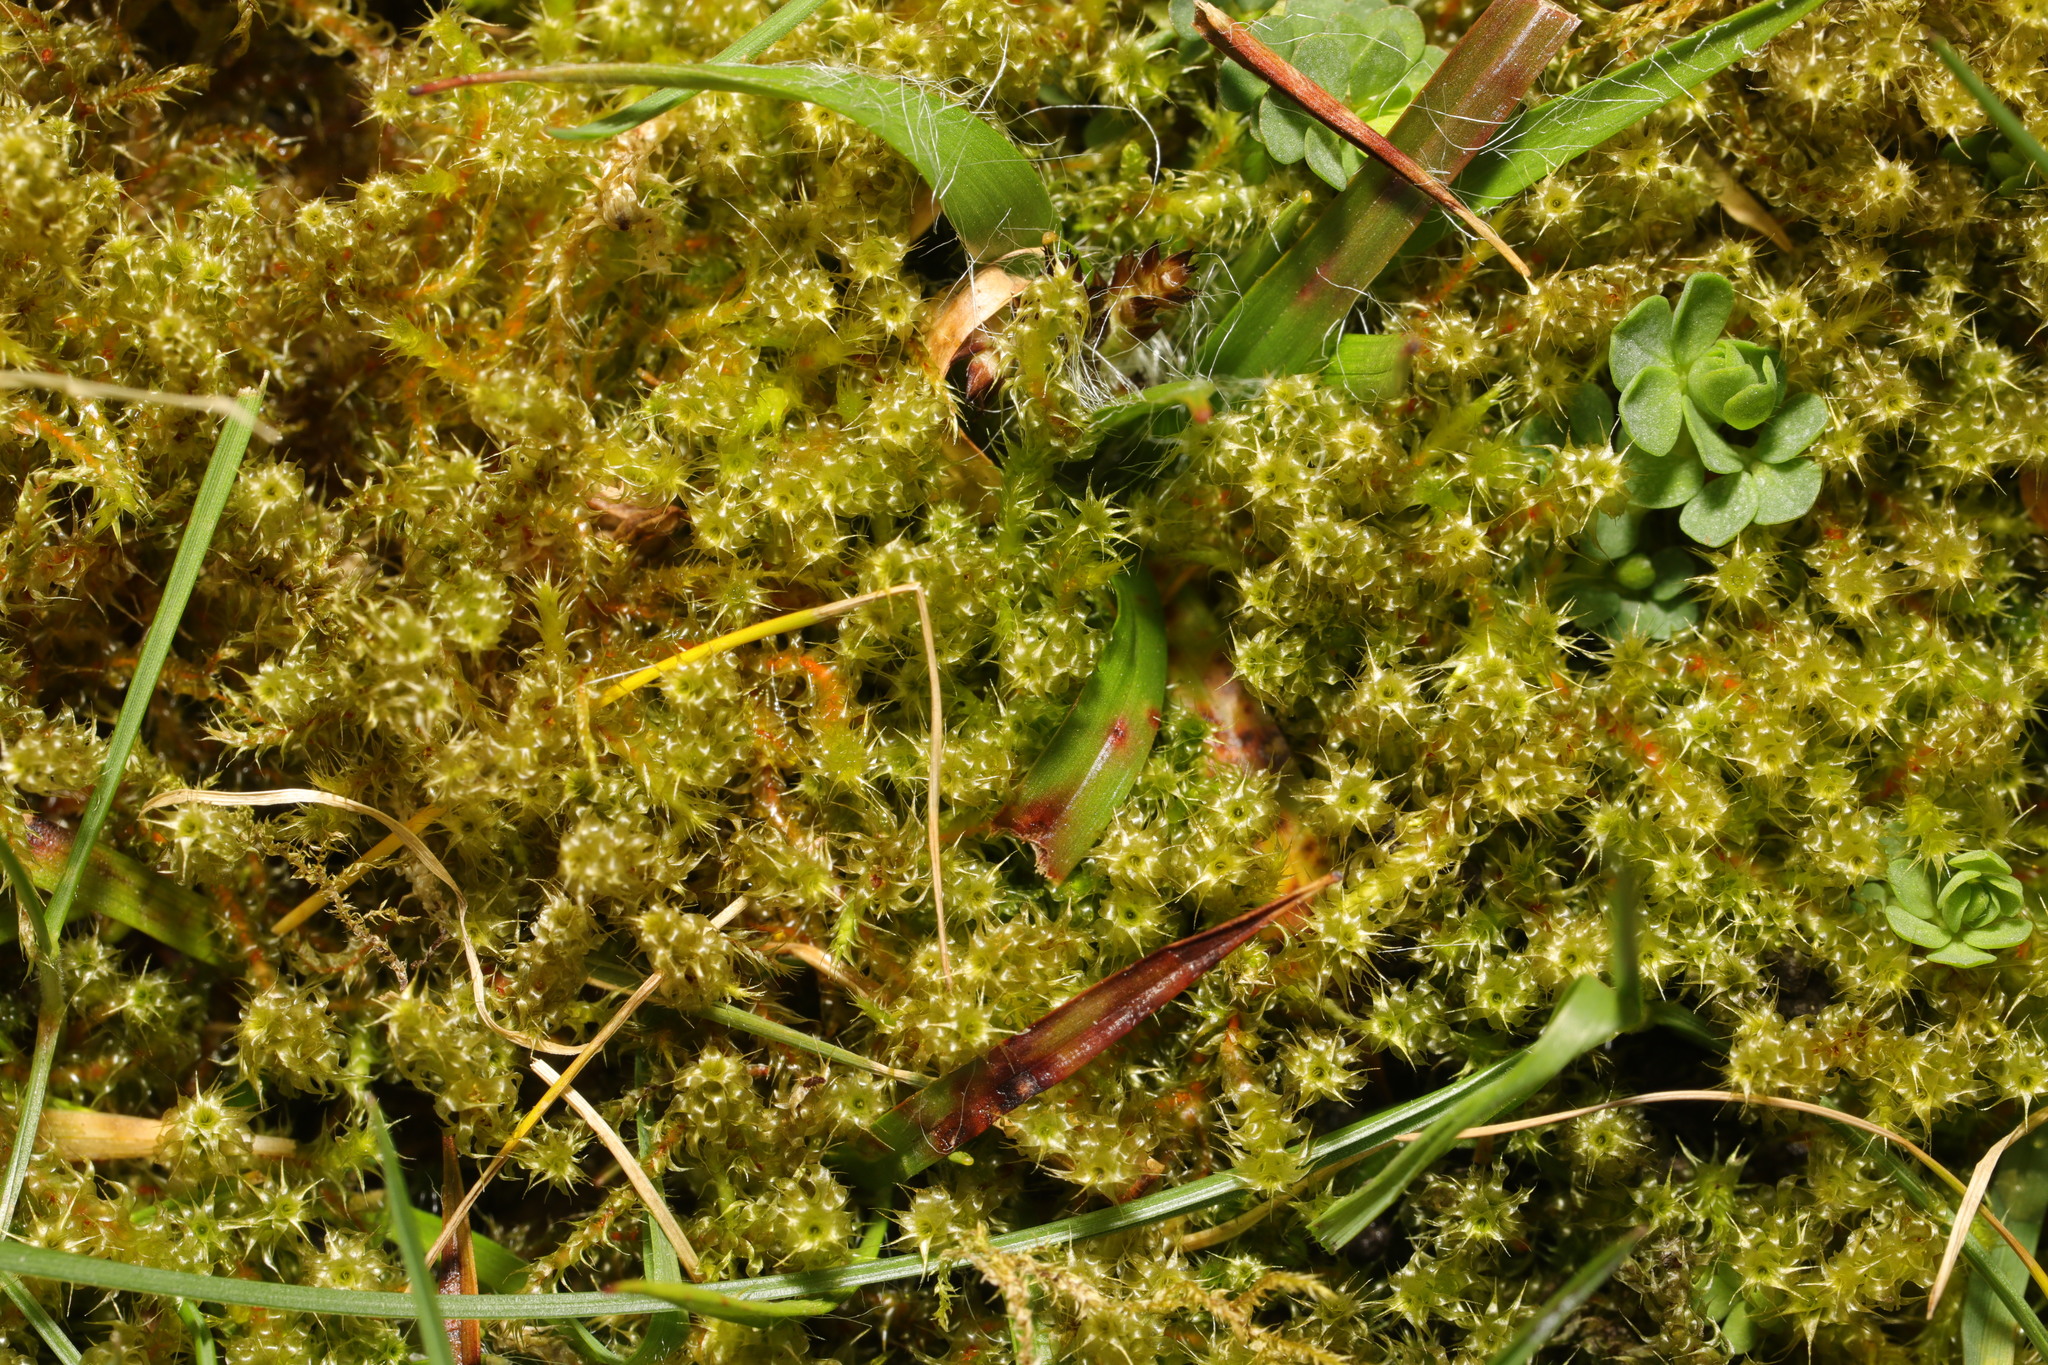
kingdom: Plantae
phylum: Bryophyta
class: Bryopsida
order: Hypnales
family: Hylocomiaceae
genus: Rhytidiadelphus
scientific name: Rhytidiadelphus squarrosus
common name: Springy turf-moss
